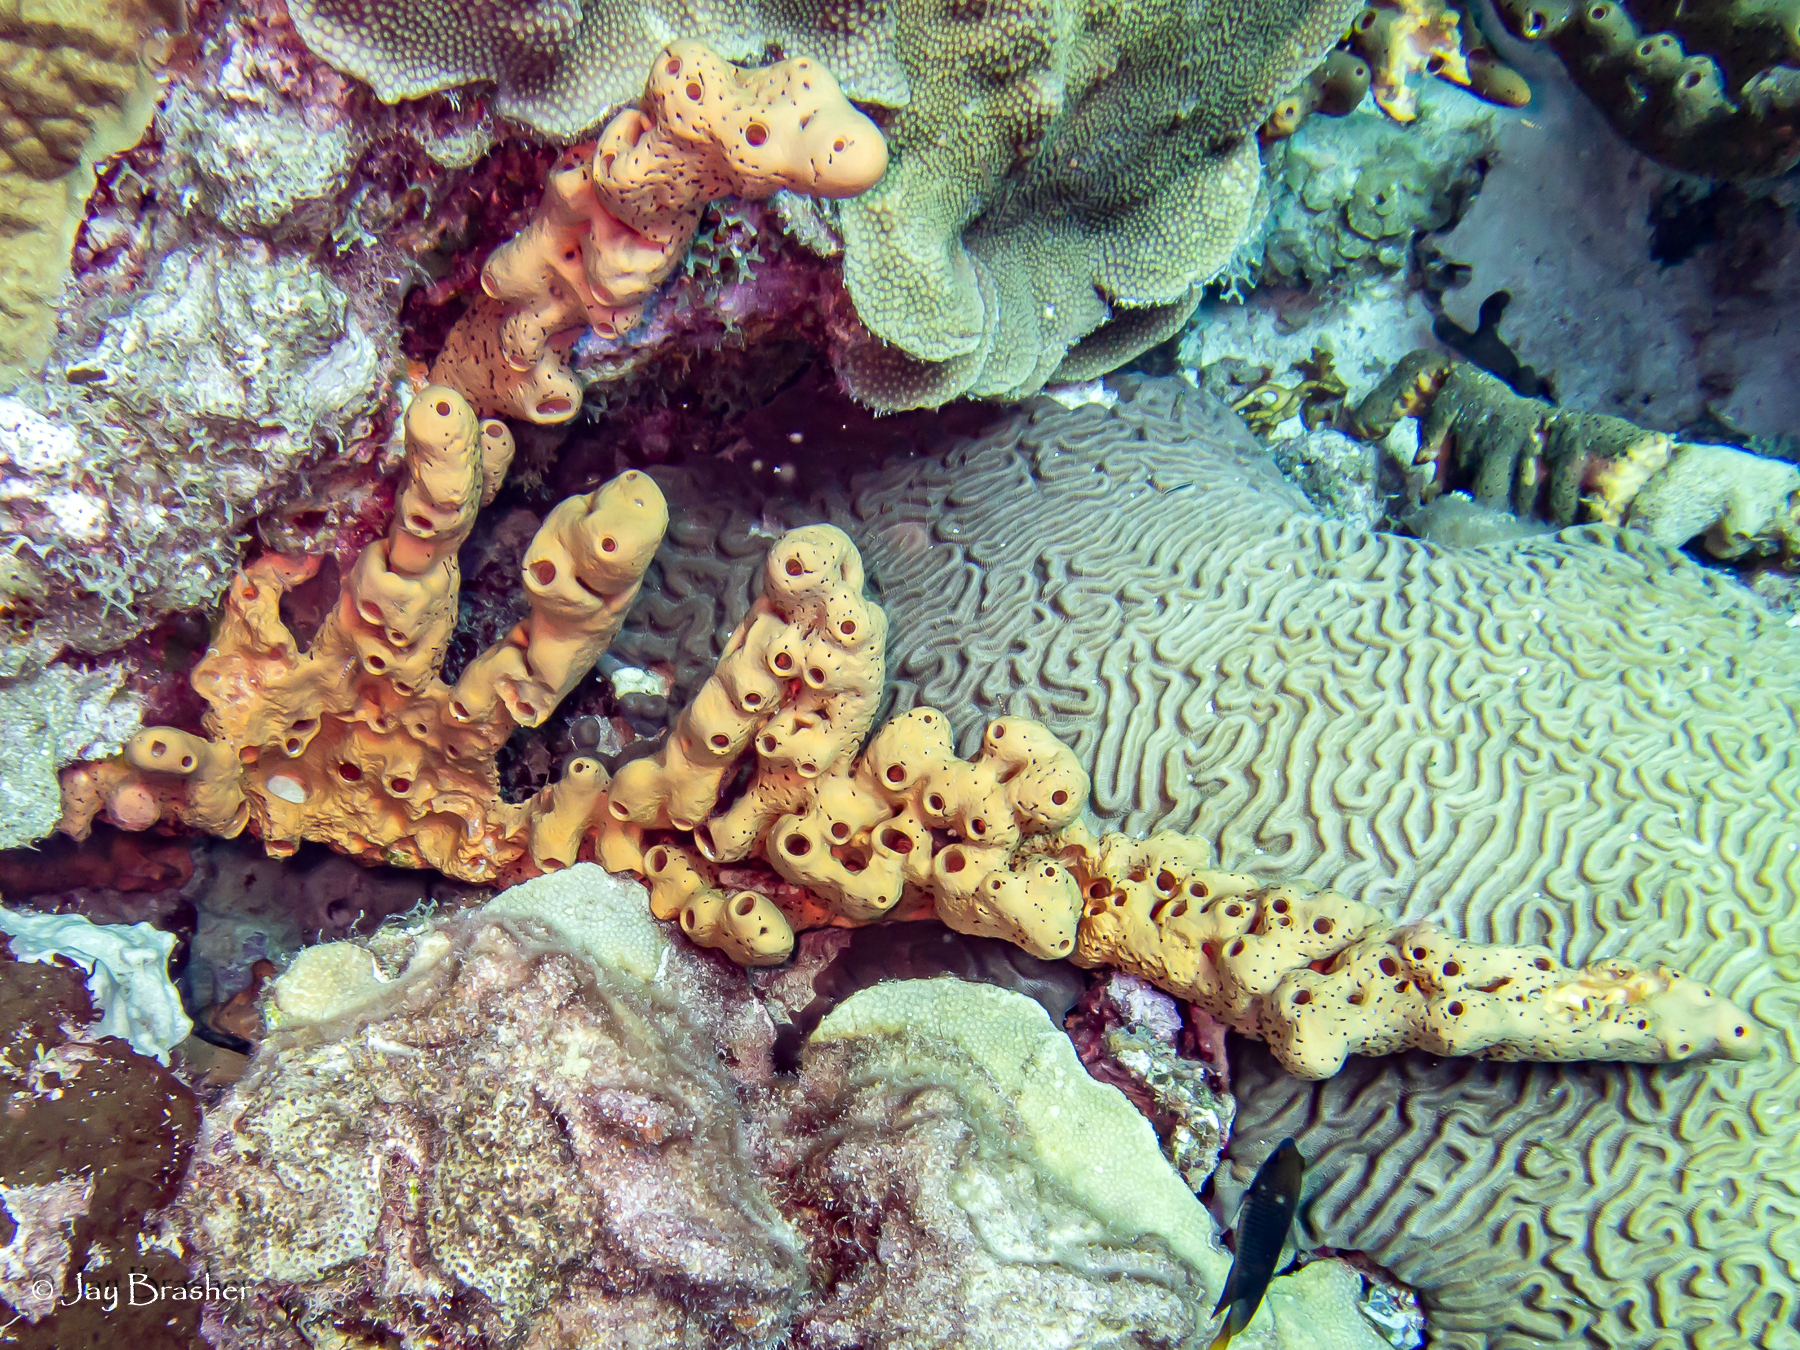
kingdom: Animalia
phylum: Porifera
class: Demospongiae
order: Agelasida
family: Agelasidae
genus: Agelas
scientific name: Agelas conifera
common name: Brown tube sponge
